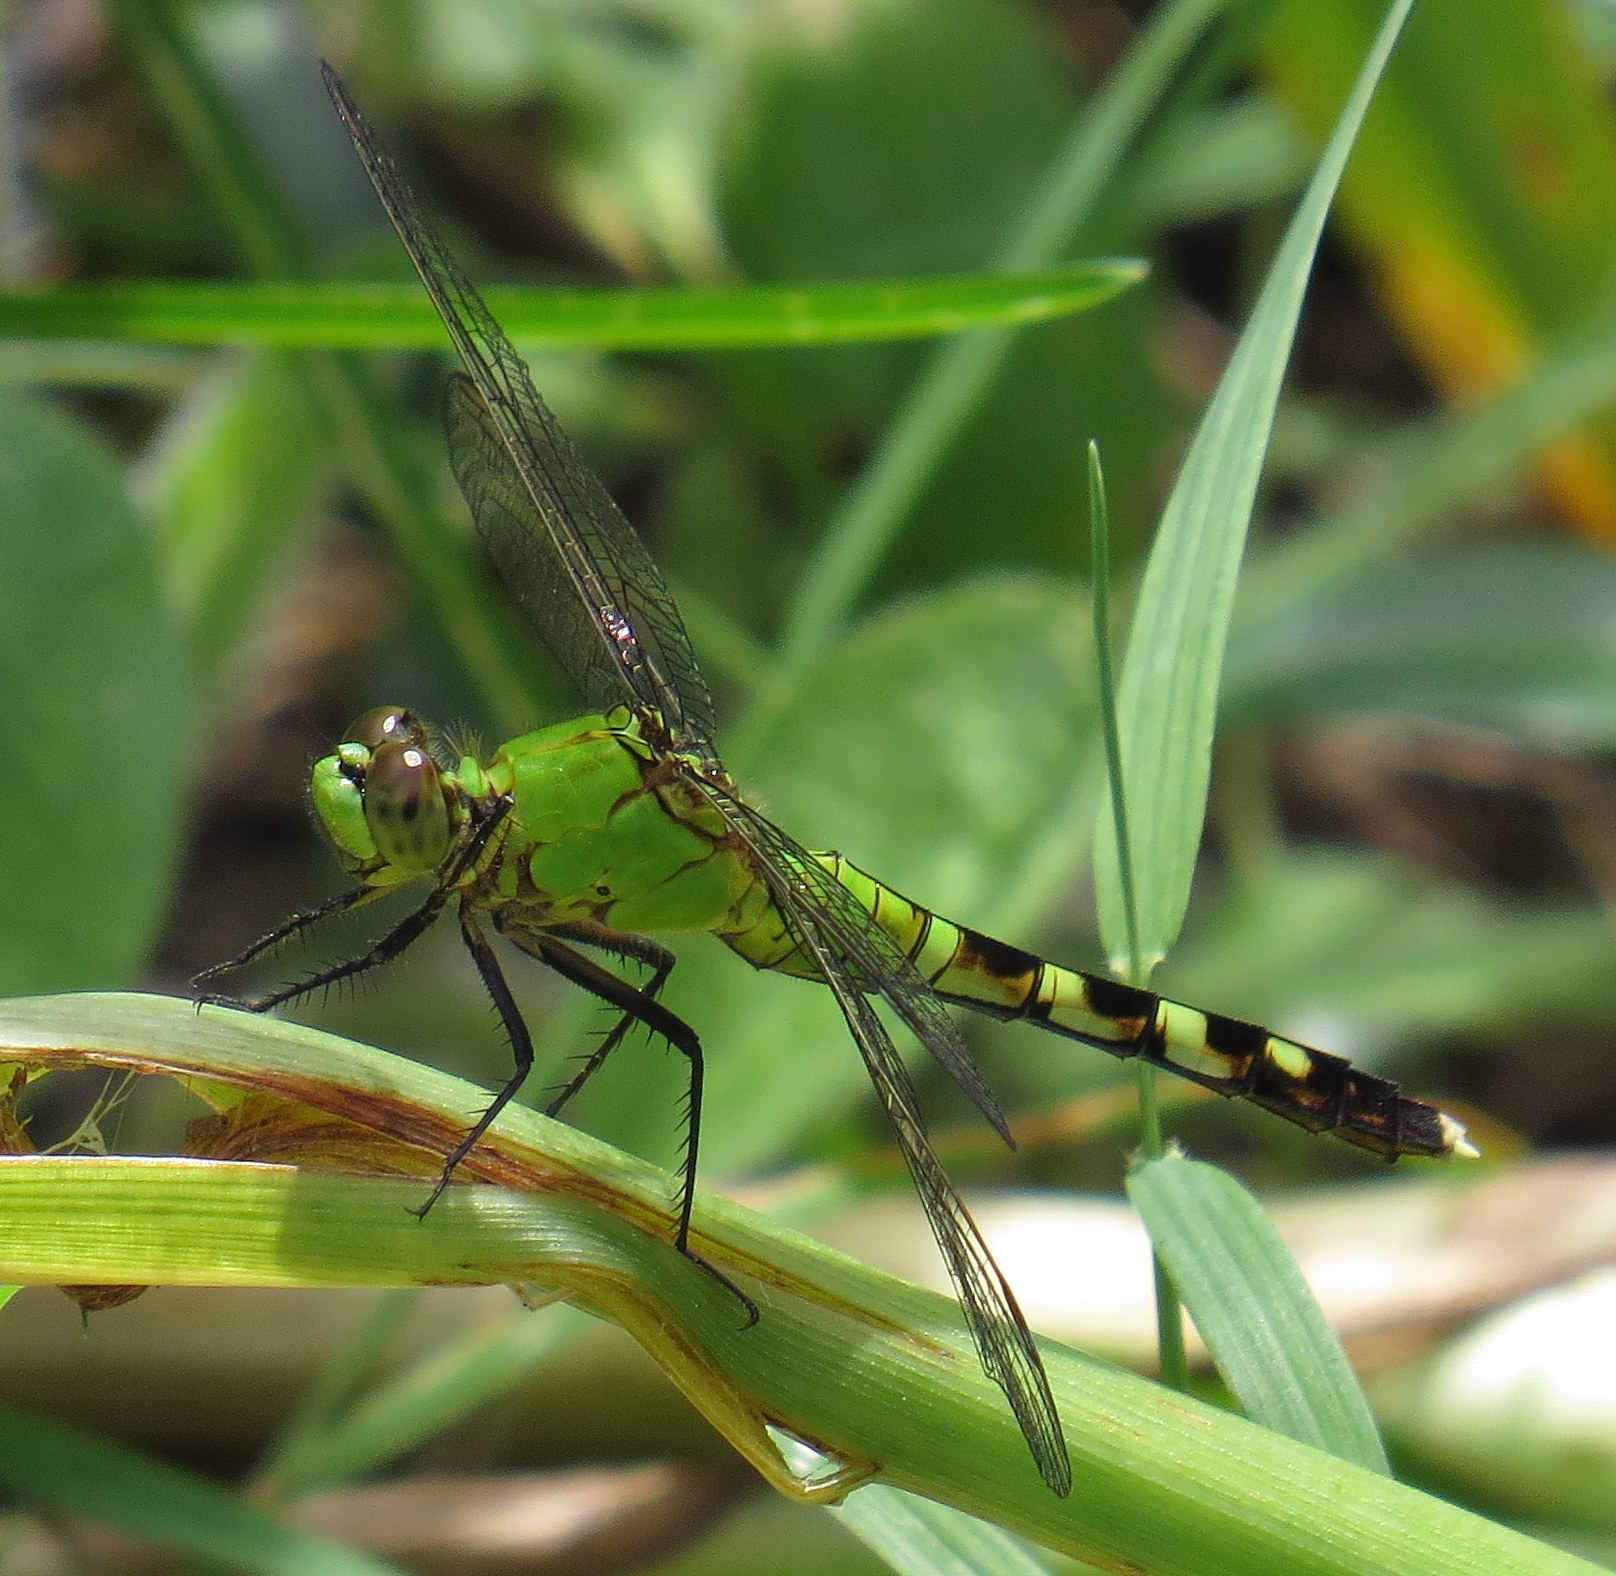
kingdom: Animalia
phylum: Arthropoda
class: Insecta
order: Odonata
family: Libellulidae
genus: Erythemis
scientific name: Erythemis simplicicollis
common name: Eastern pondhawk
